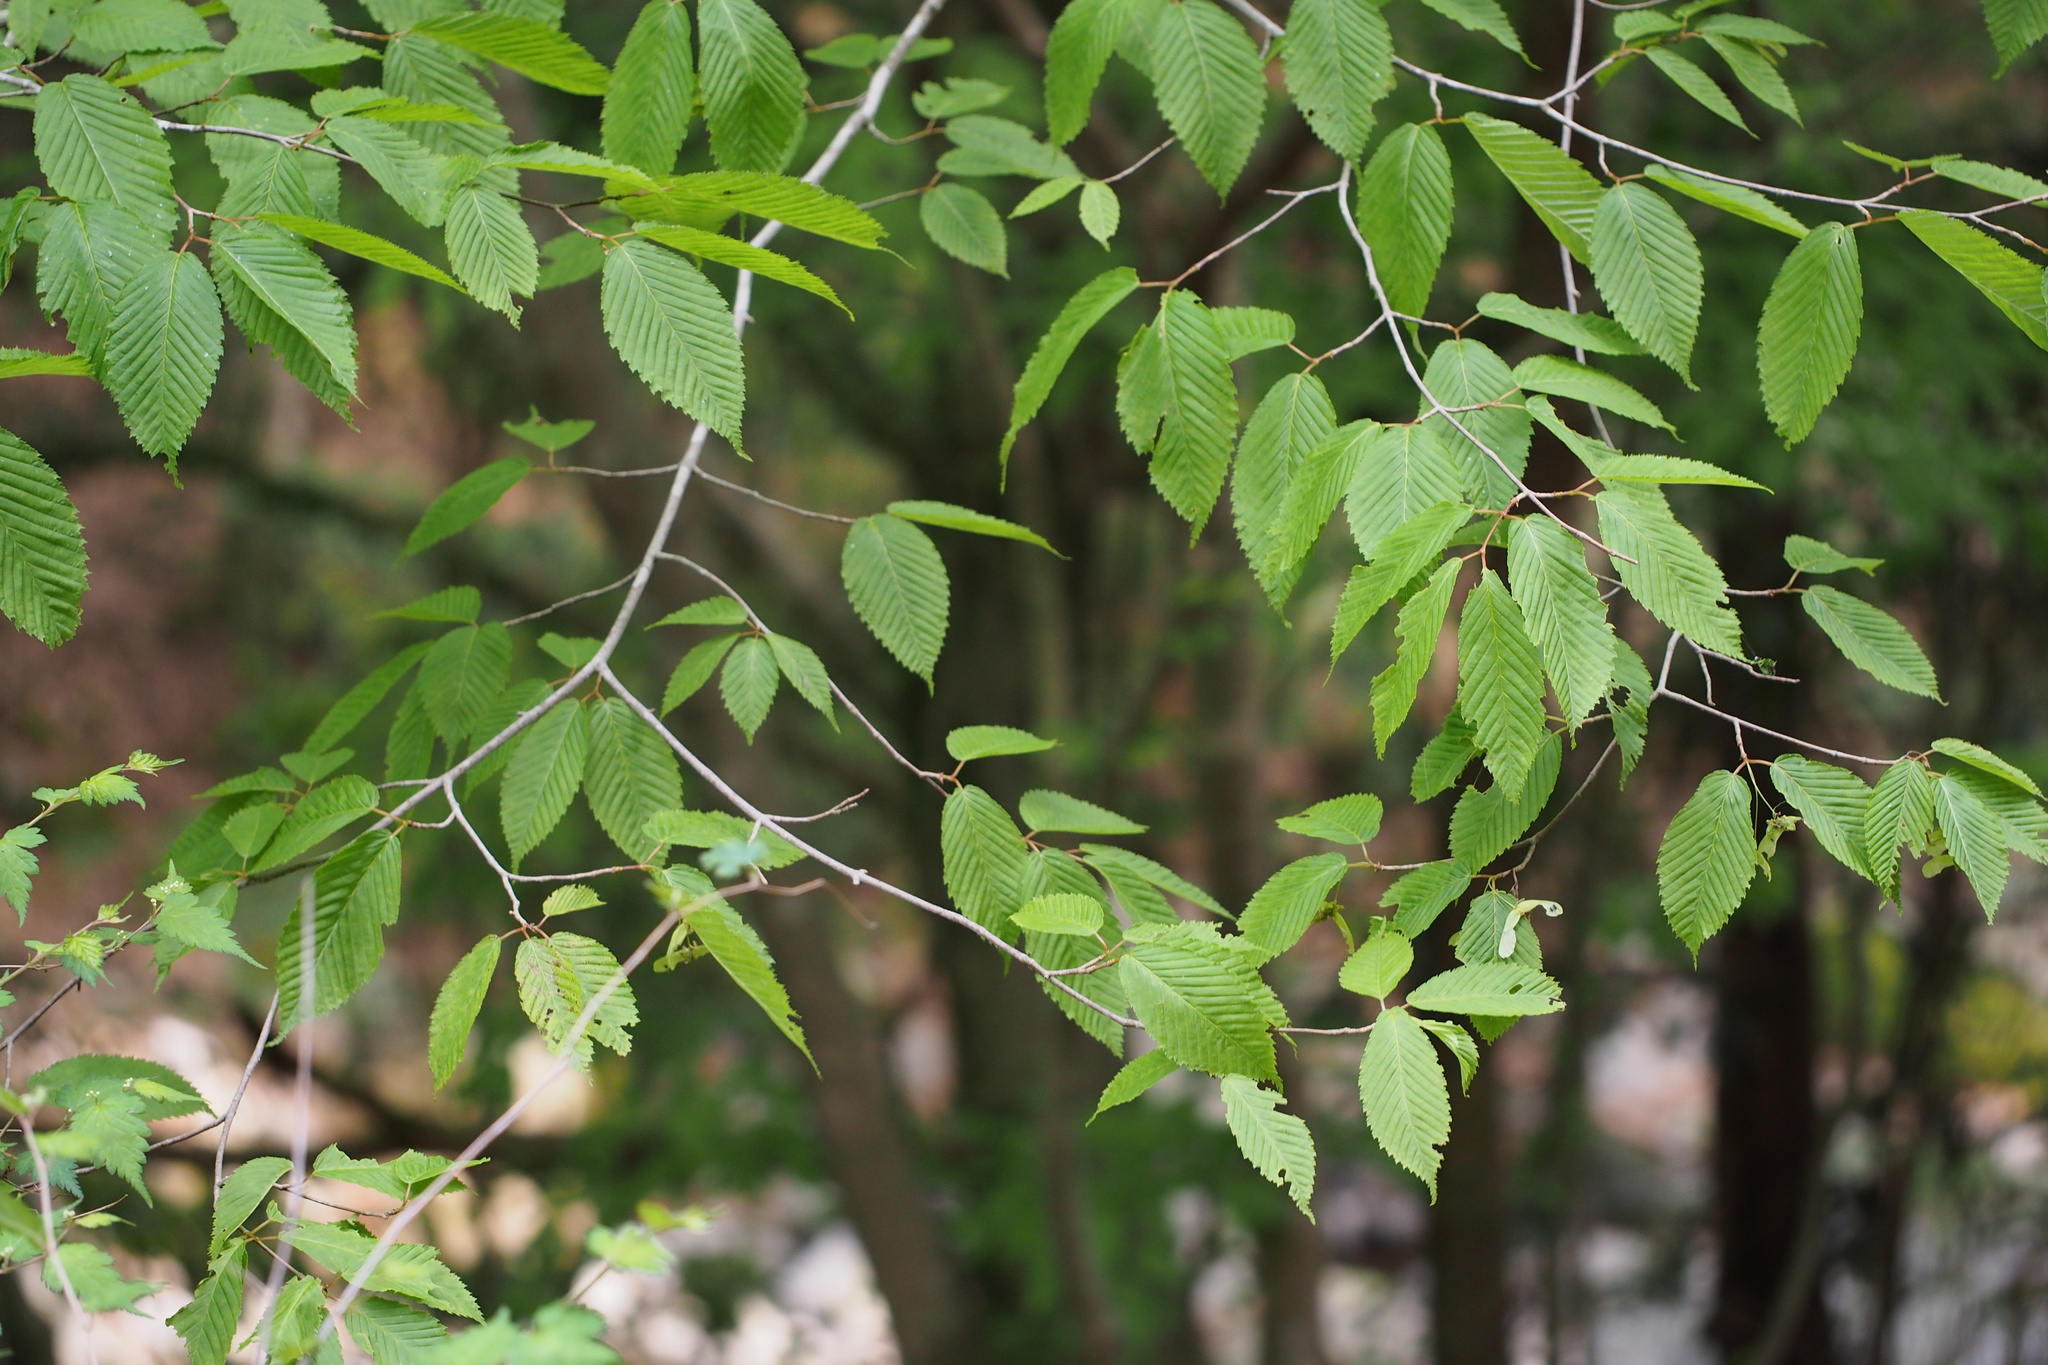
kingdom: Plantae
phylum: Tracheophyta
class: Magnoliopsida
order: Sapindales
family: Sapindaceae
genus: Acer
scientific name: Acer carpinifolium
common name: Hornbeam maple
